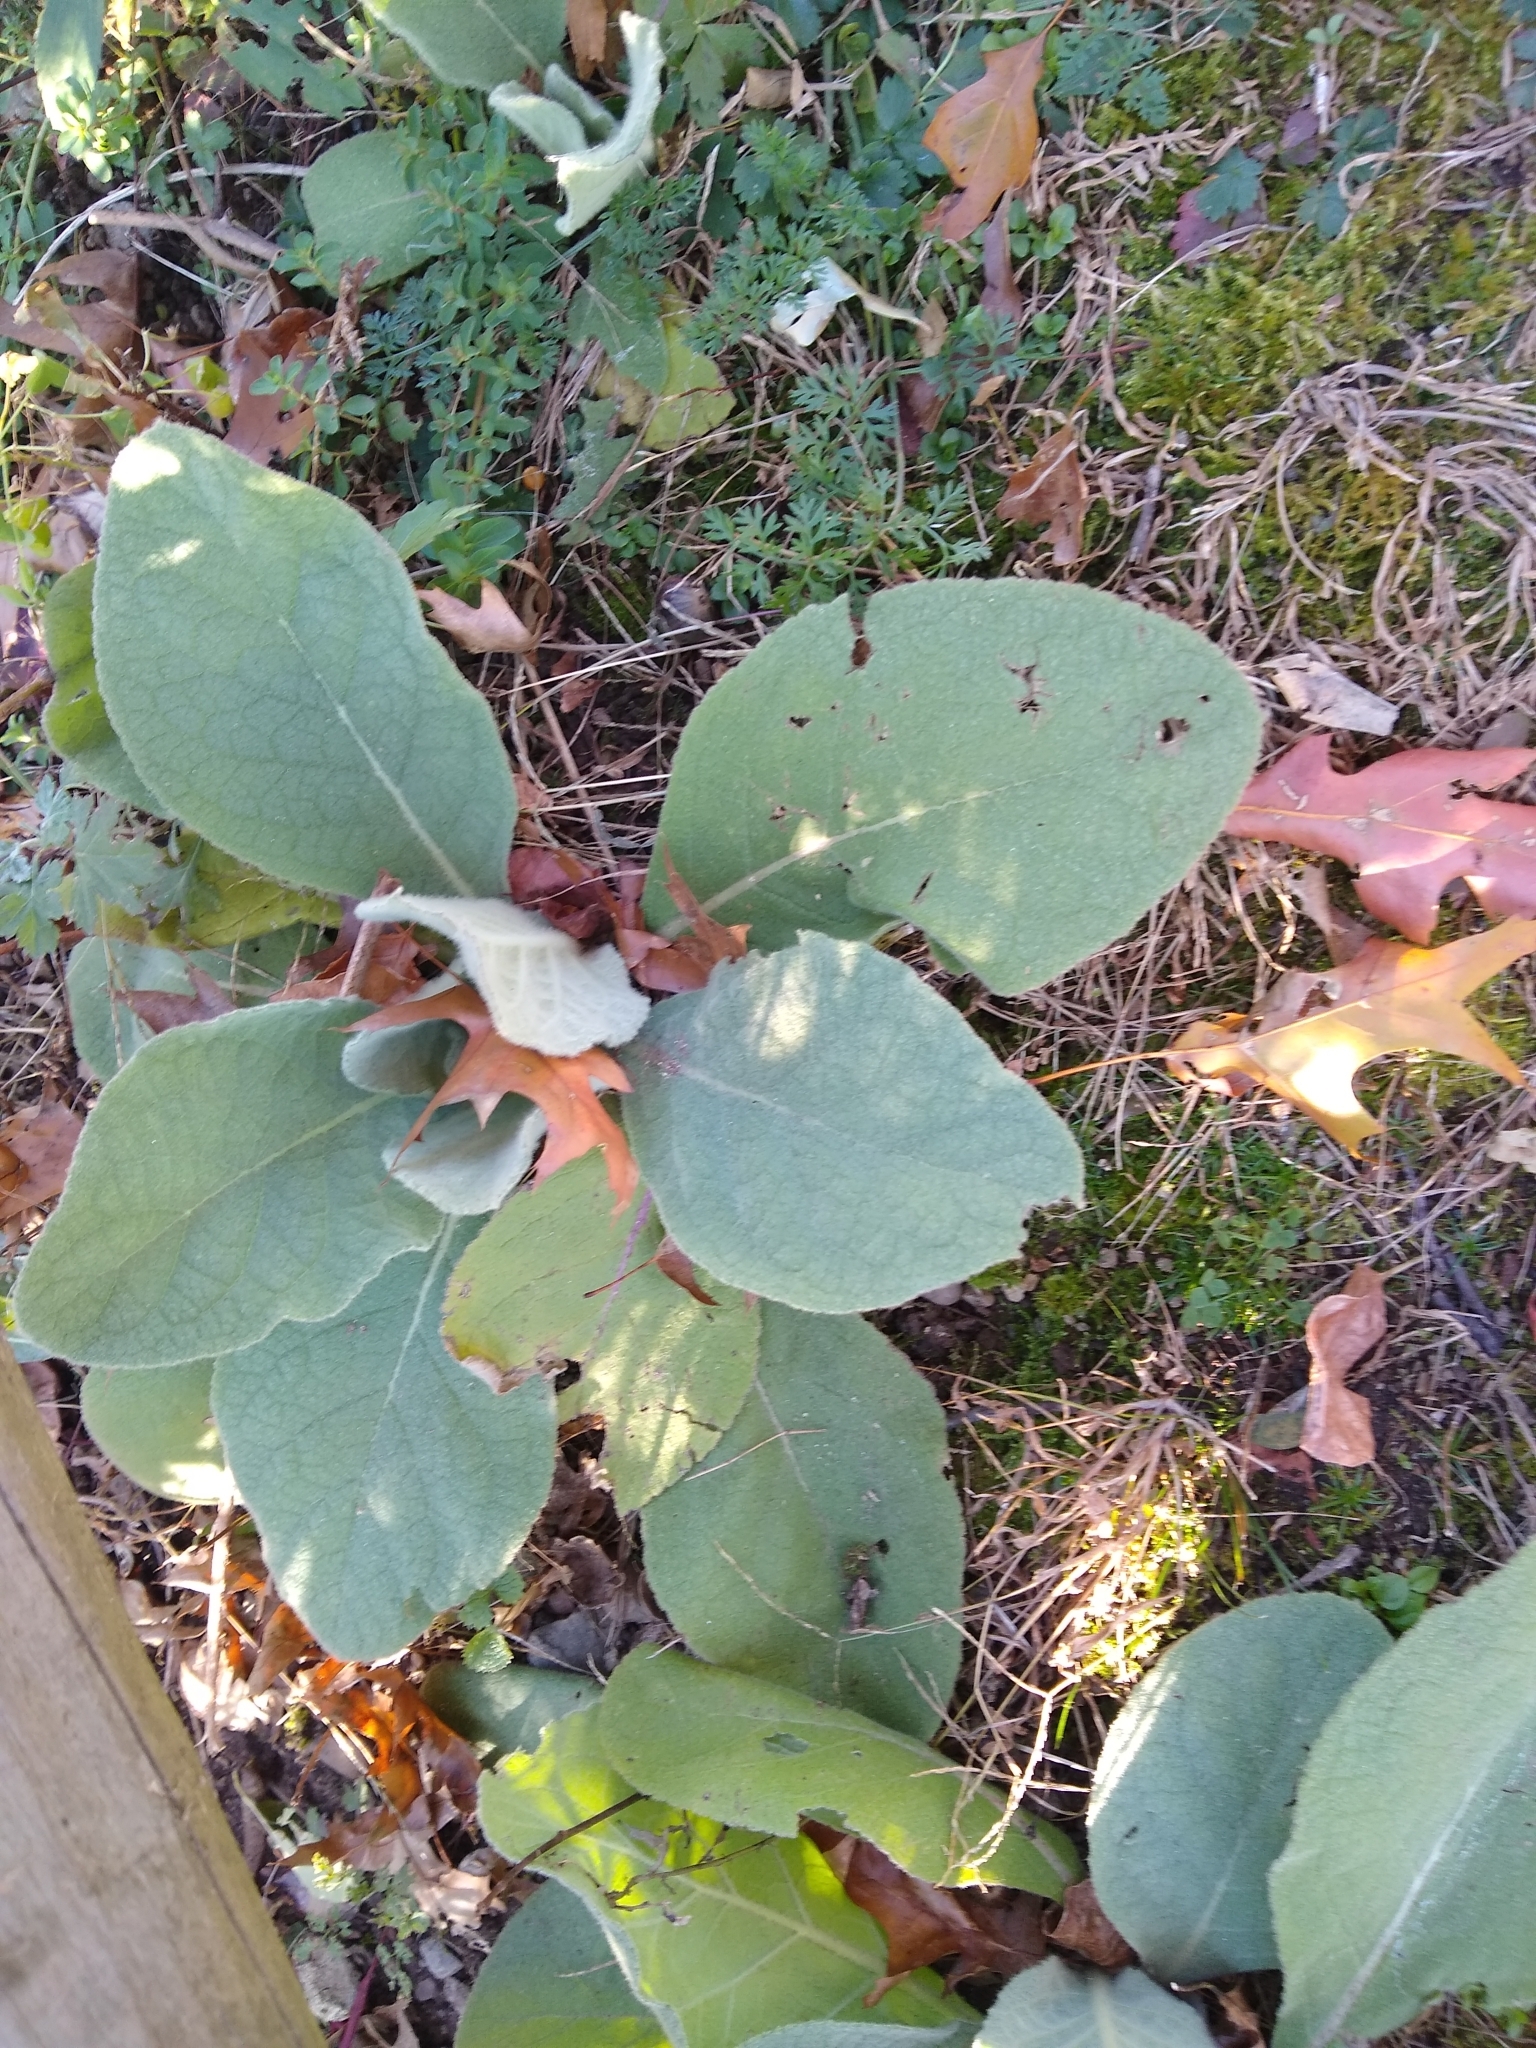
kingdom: Plantae
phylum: Tracheophyta
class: Magnoliopsida
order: Lamiales
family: Scrophulariaceae
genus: Verbascum
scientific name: Verbascum thapsus
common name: Common mullein
